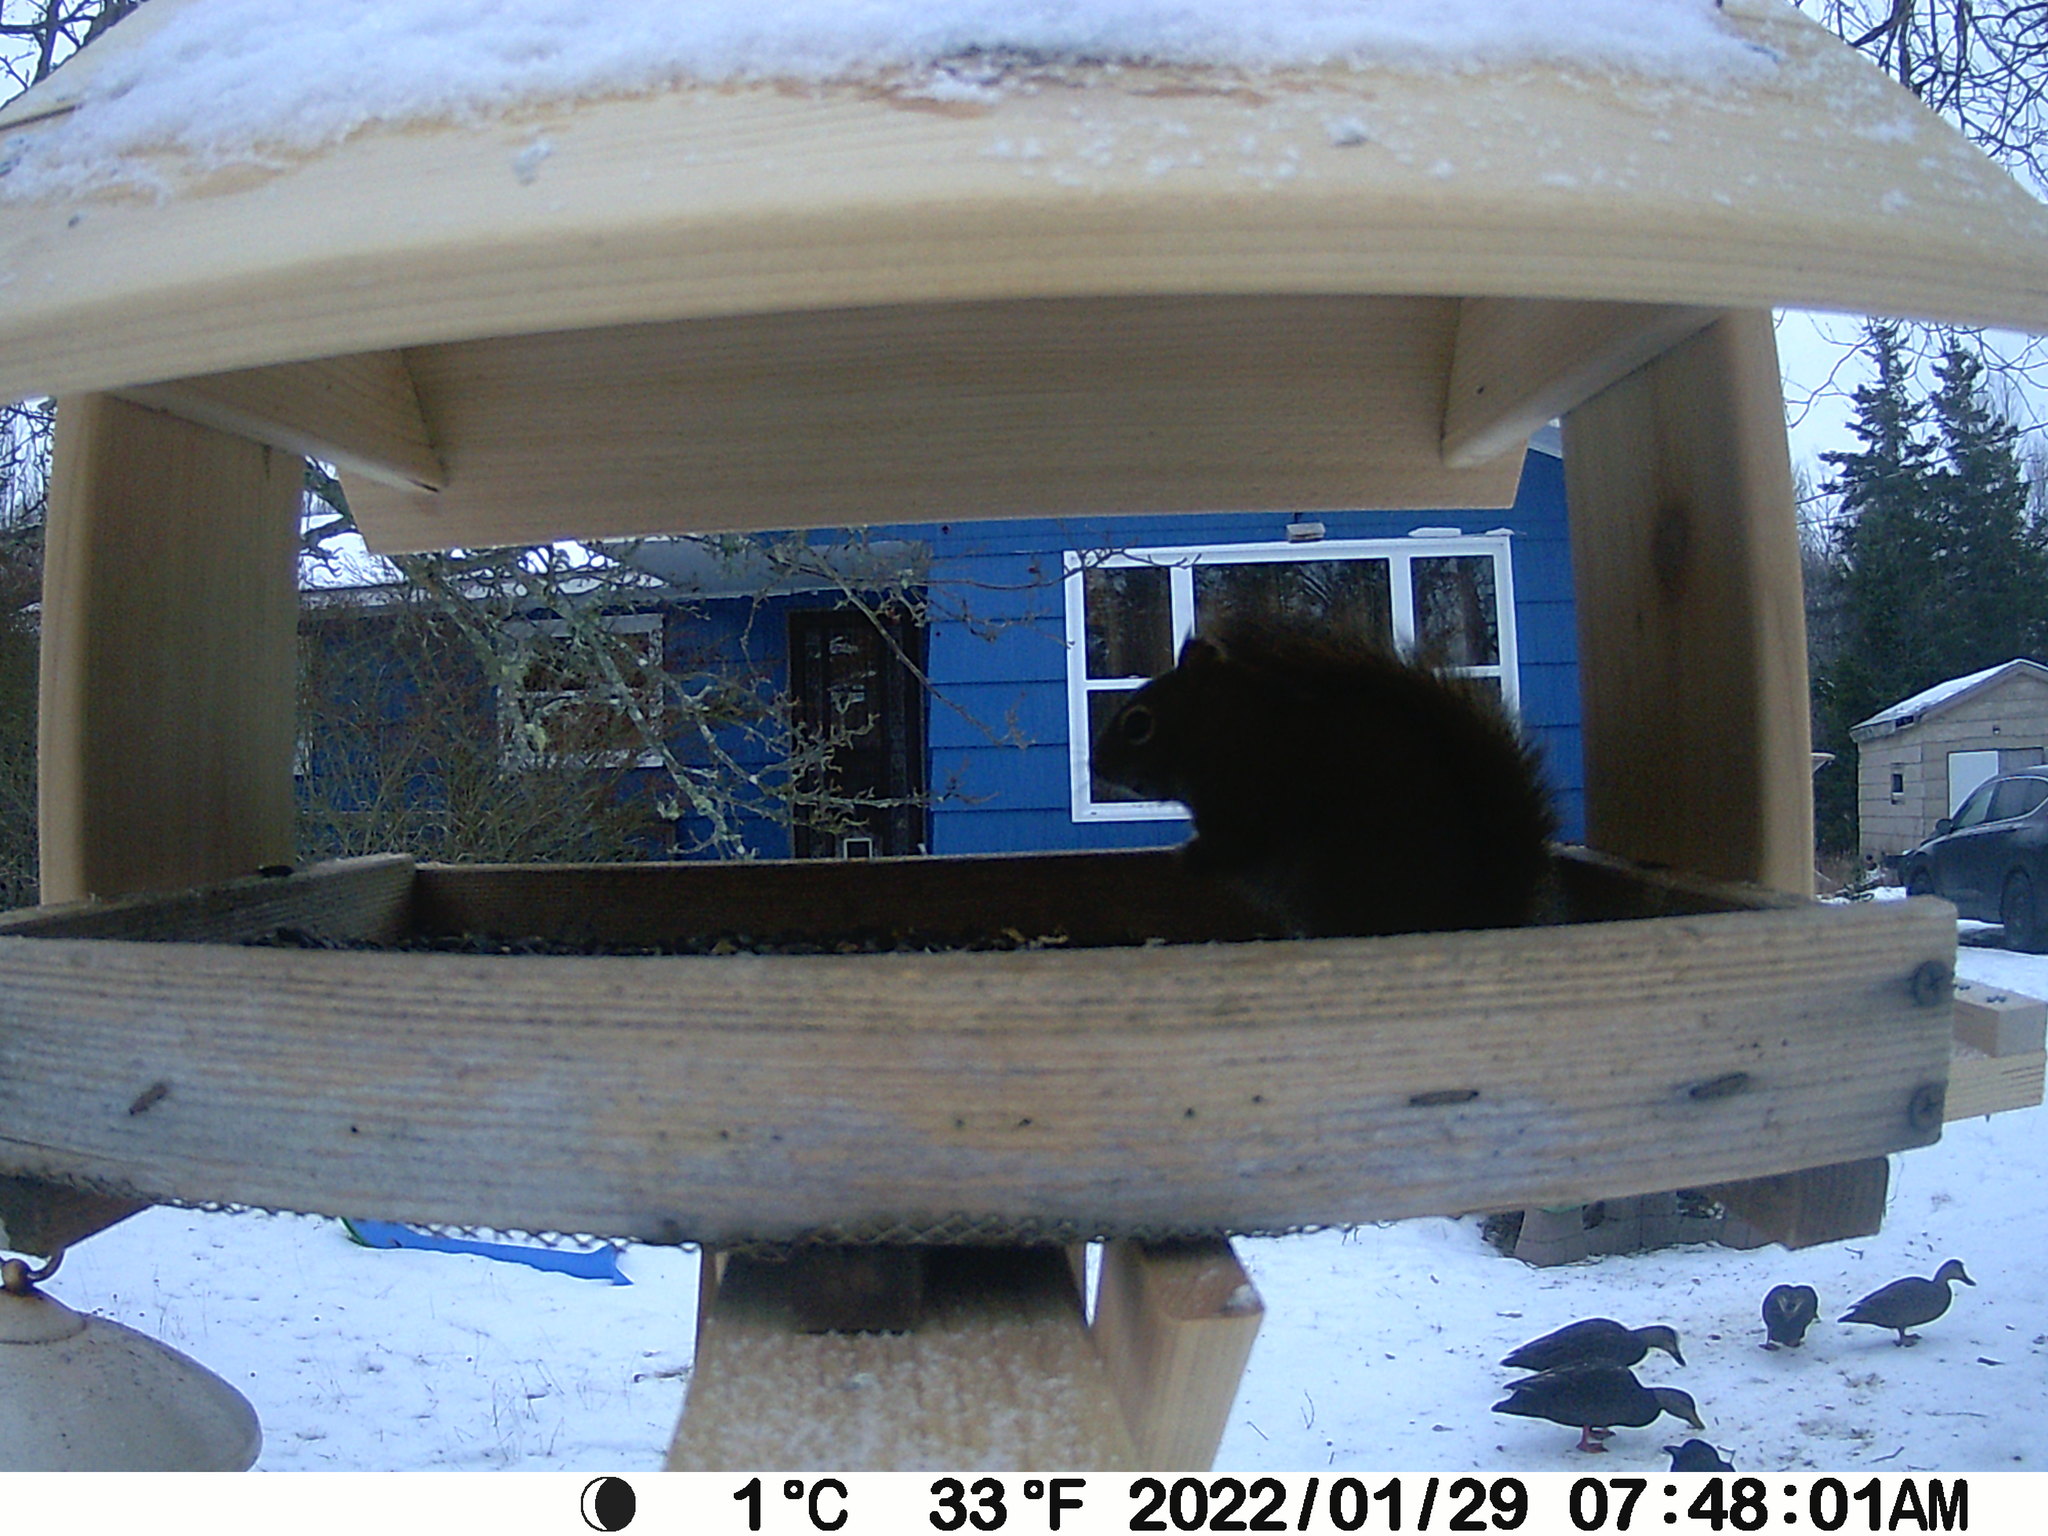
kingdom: Animalia
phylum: Chordata
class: Aves
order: Anseriformes
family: Anatidae
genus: Anas
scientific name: Anas rubripes
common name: American black duck
